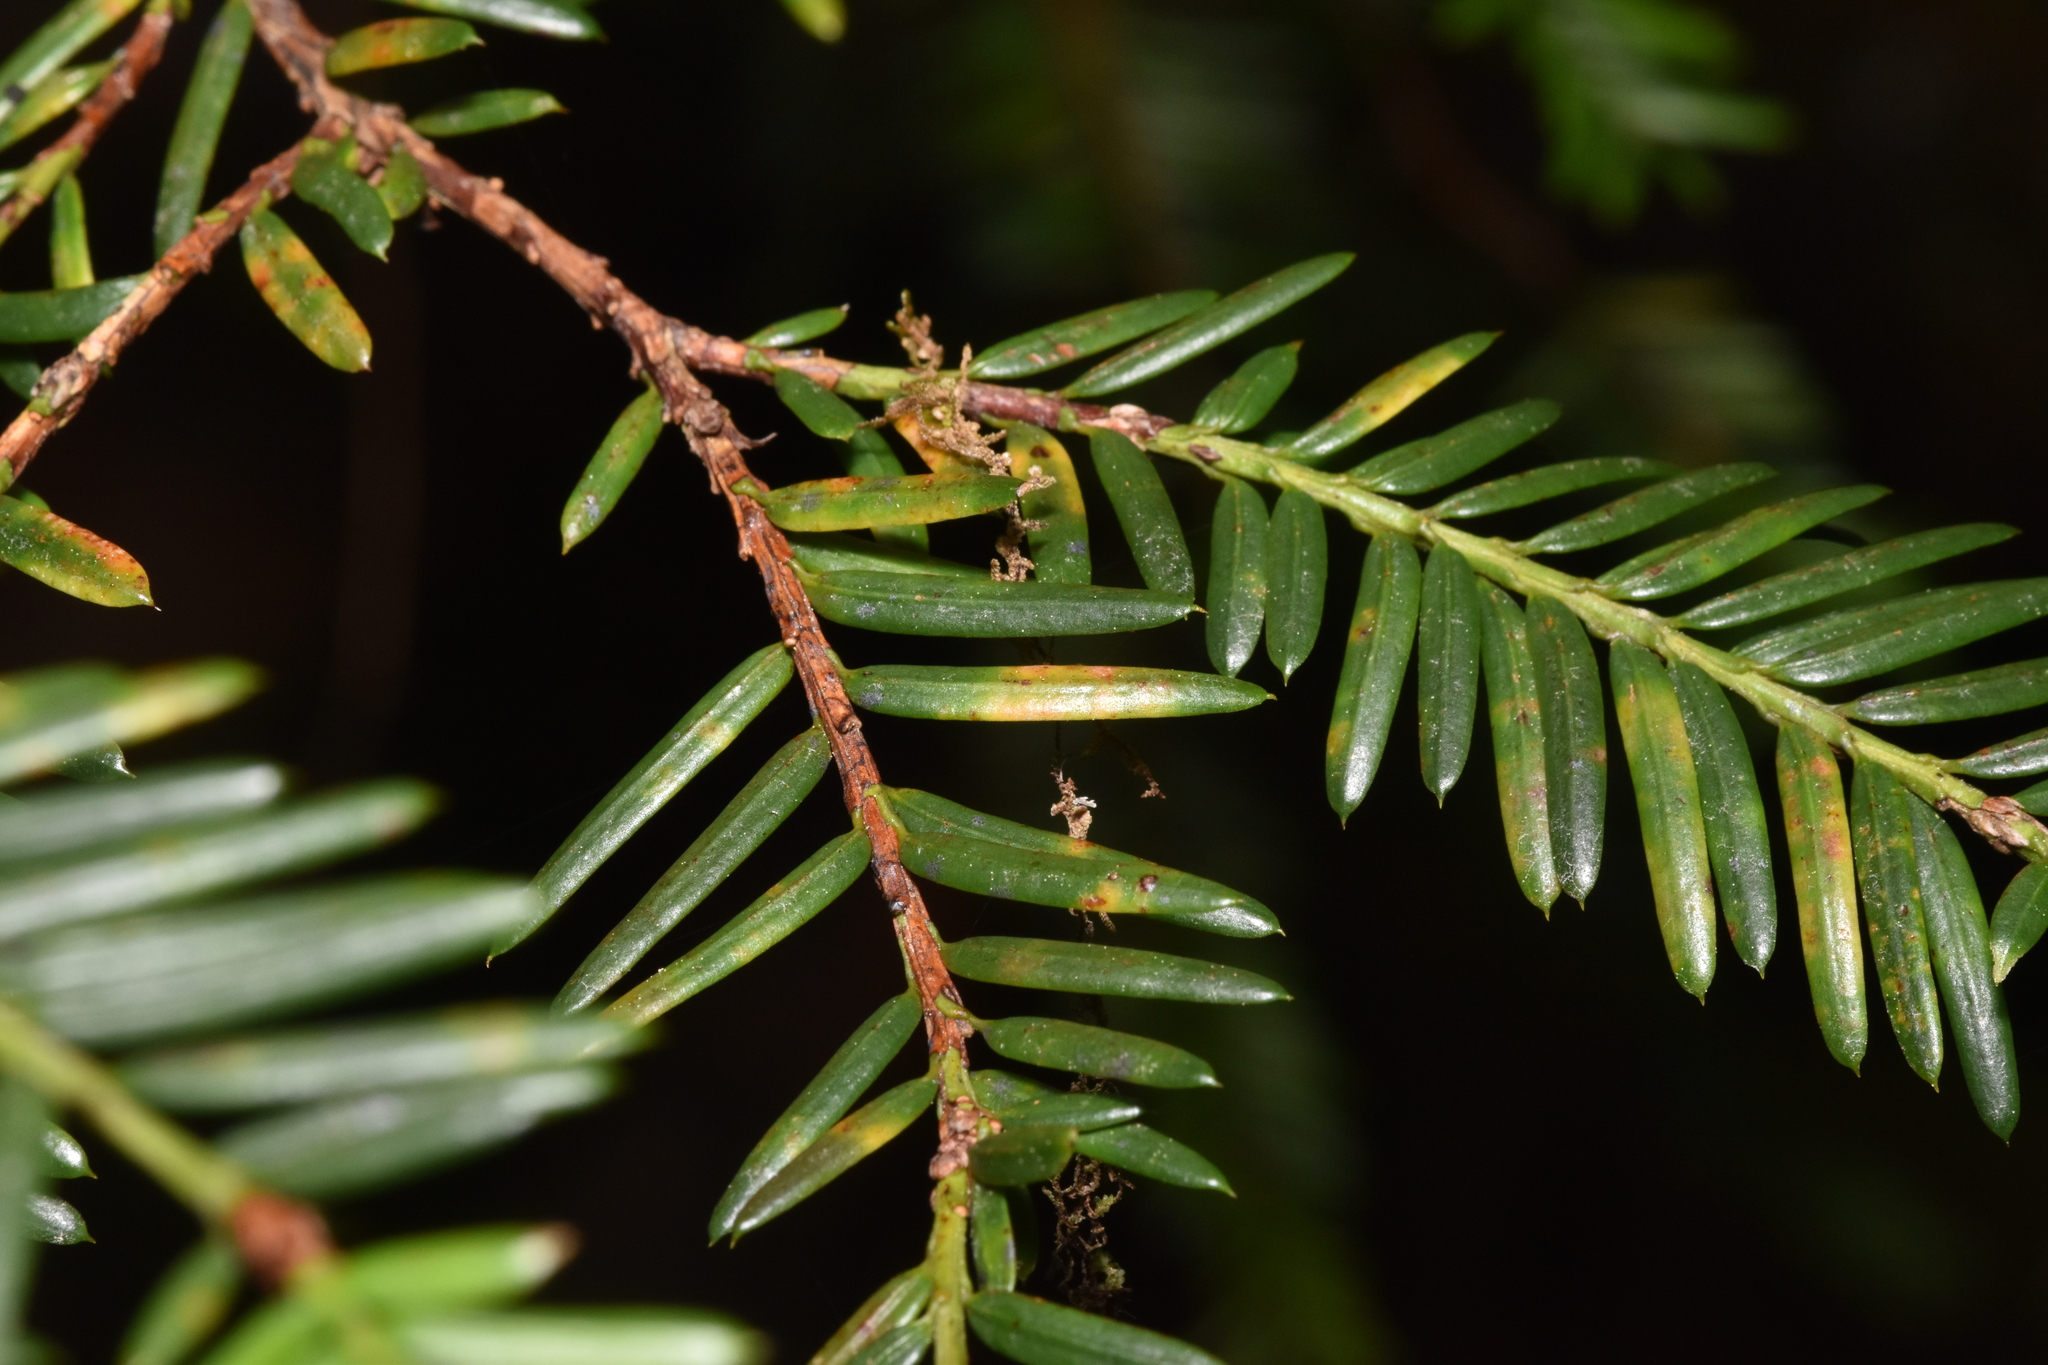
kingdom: Plantae
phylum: Tracheophyta
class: Pinopsida
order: Pinales
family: Taxaceae
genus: Taxus
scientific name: Taxus brevifolia
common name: Pacific yew
